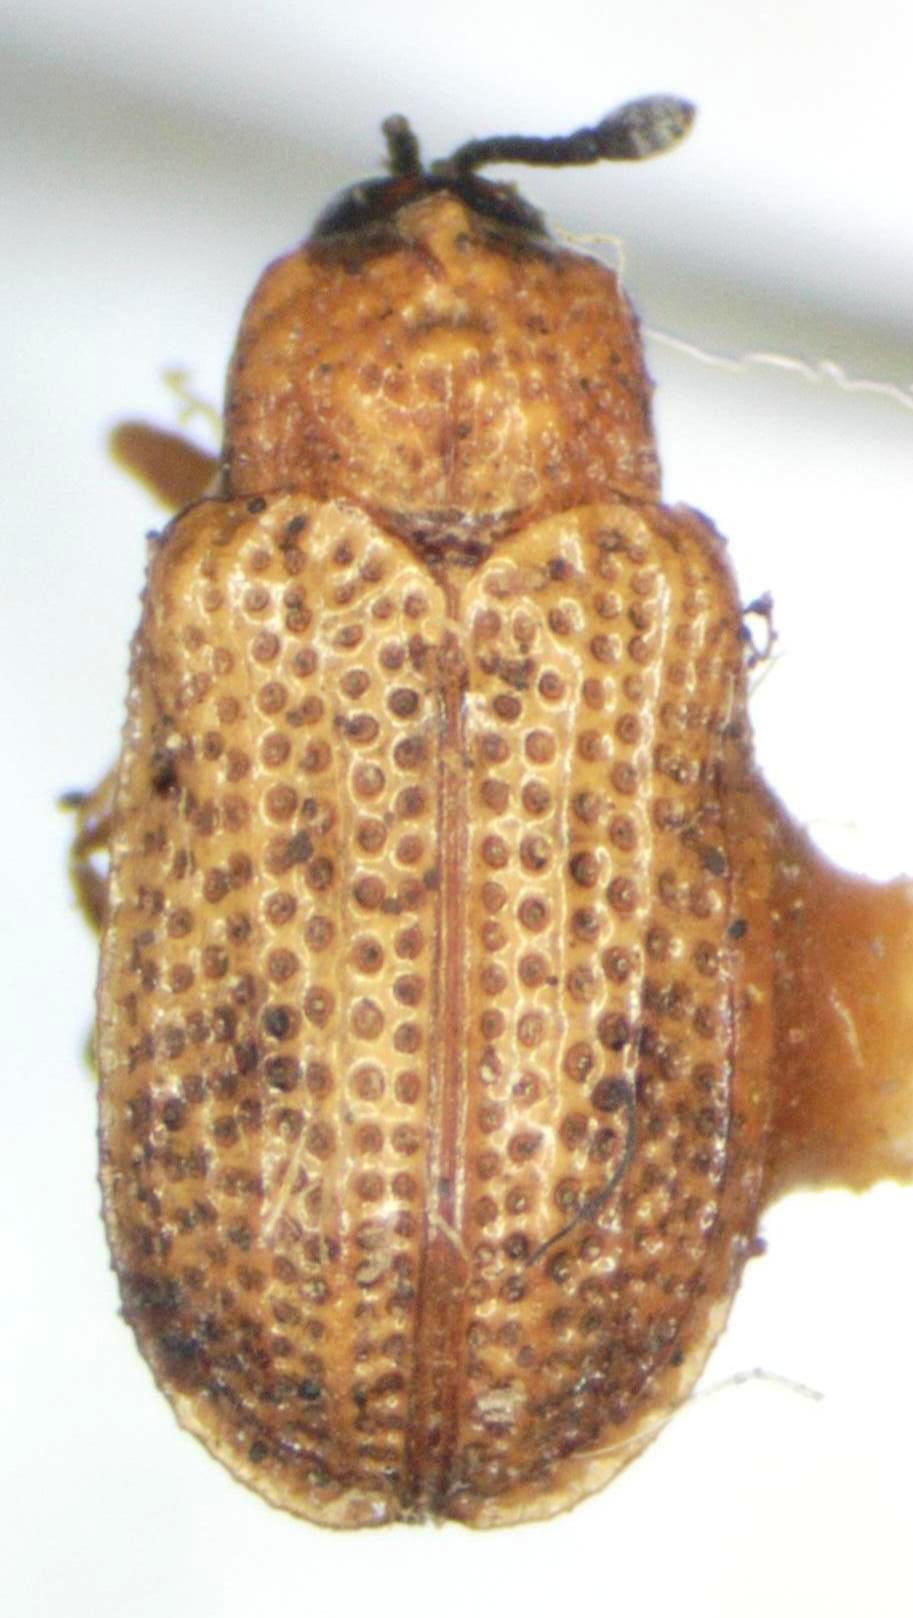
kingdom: Animalia
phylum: Arthropoda
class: Insecta
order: Coleoptera
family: Chrysomelidae
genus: Stenopodius
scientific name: Stenopodius flavidus
